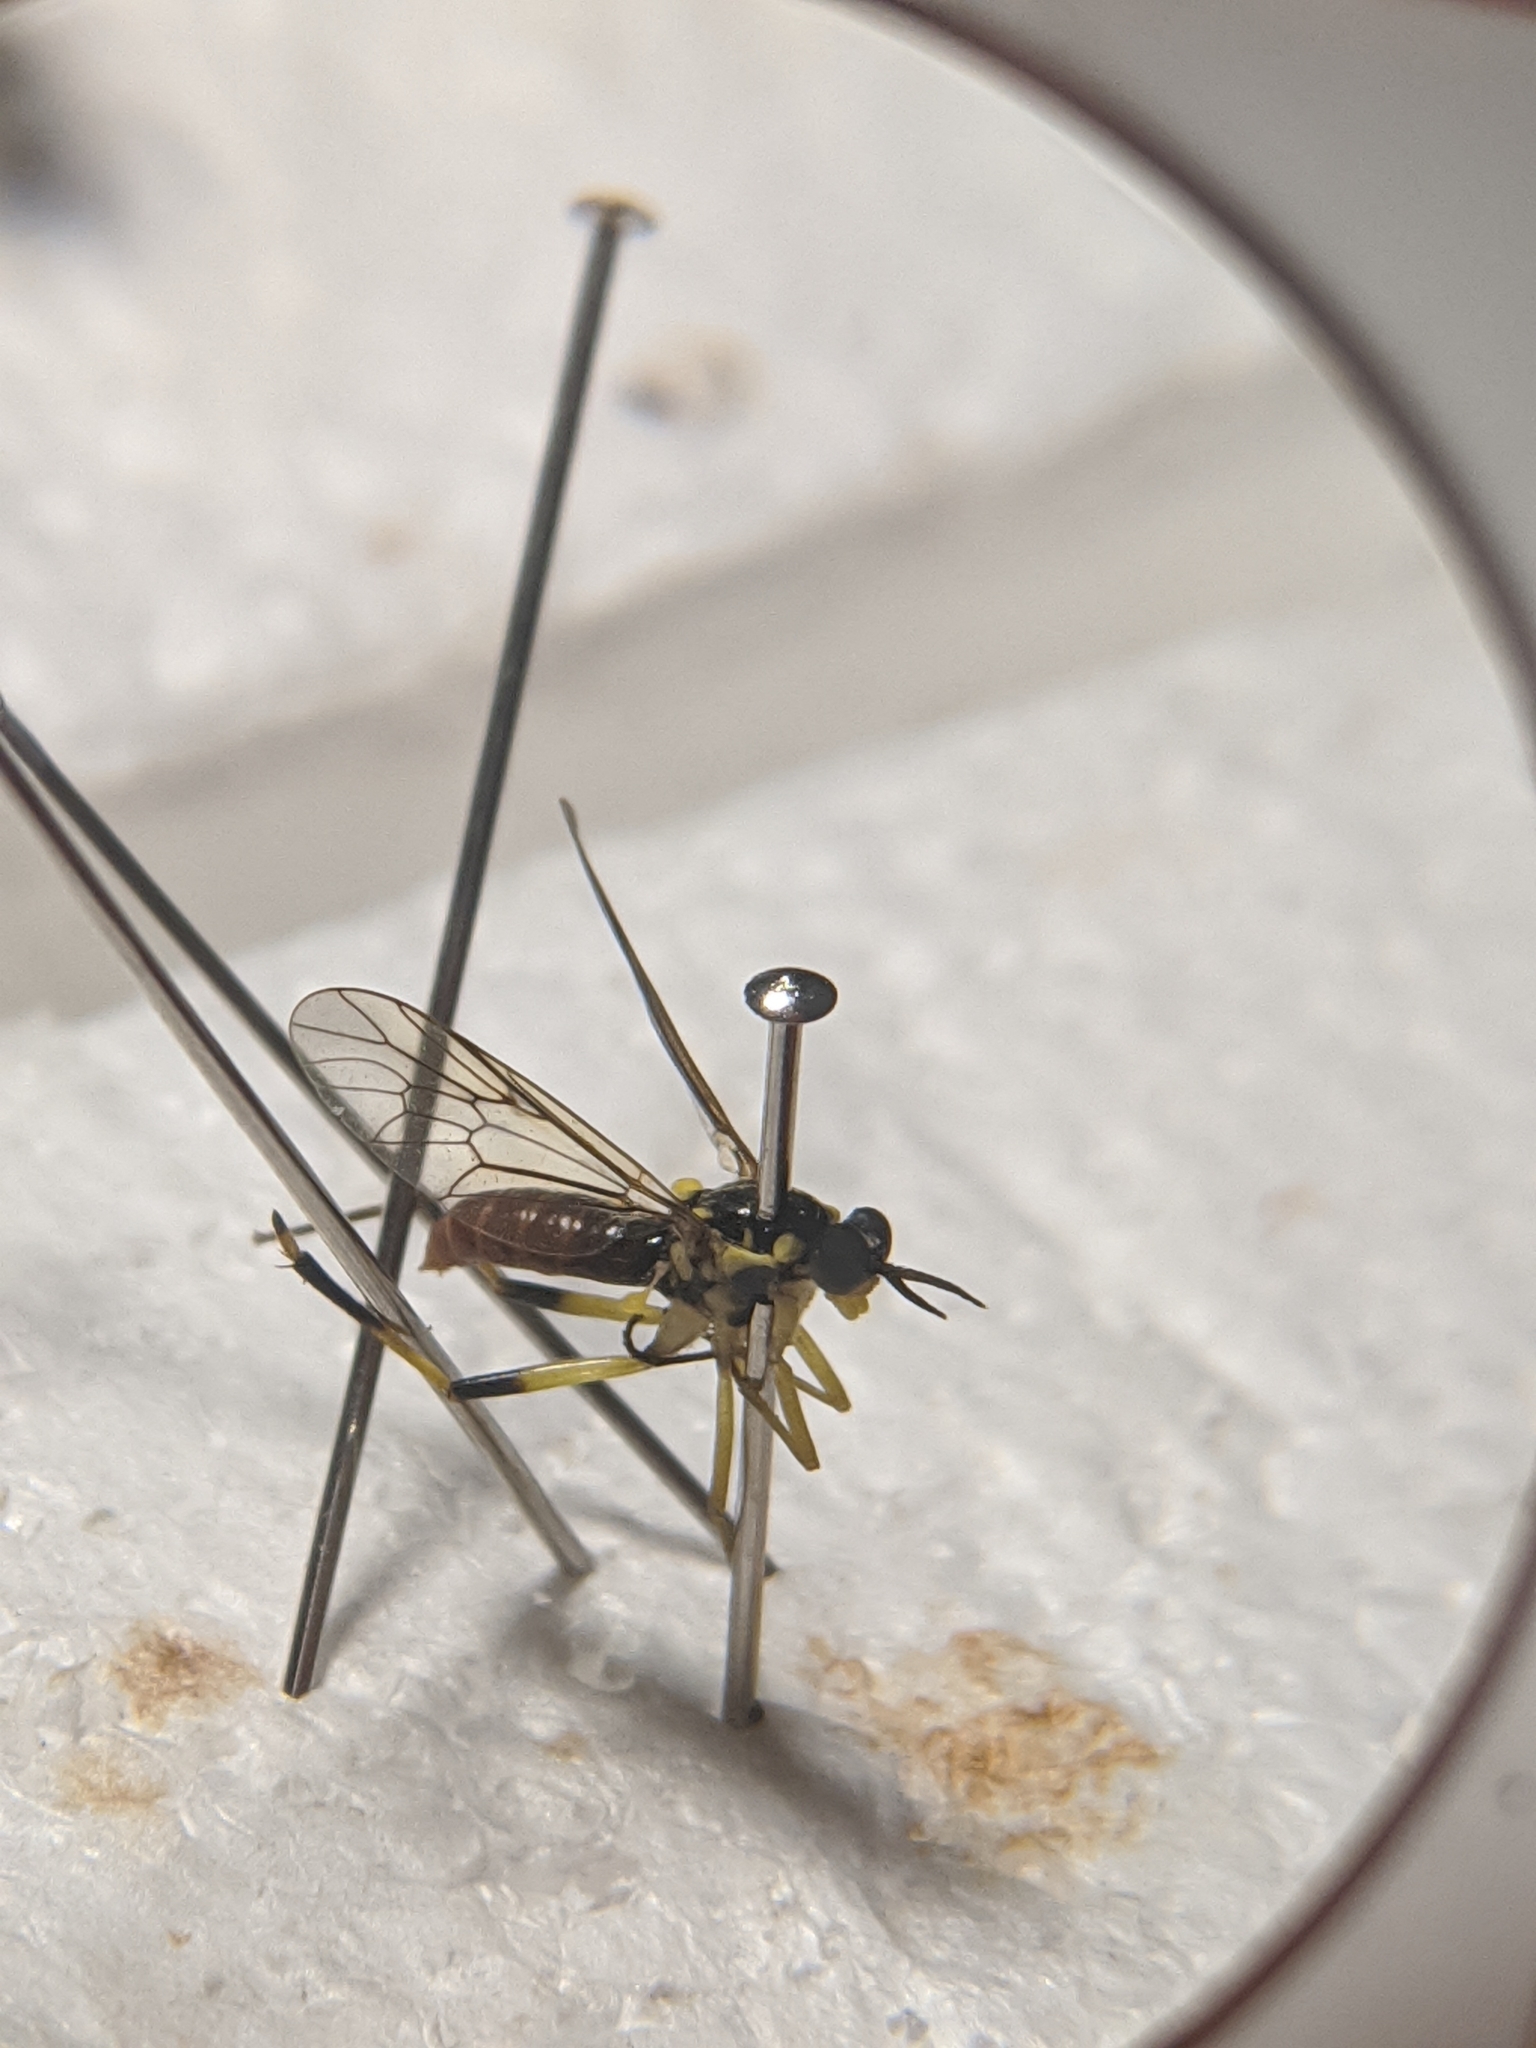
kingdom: Animalia
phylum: Arthropoda
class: Insecta
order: Diptera
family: Xylomyidae
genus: Xylomya
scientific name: Xylomya tenthredinoides
